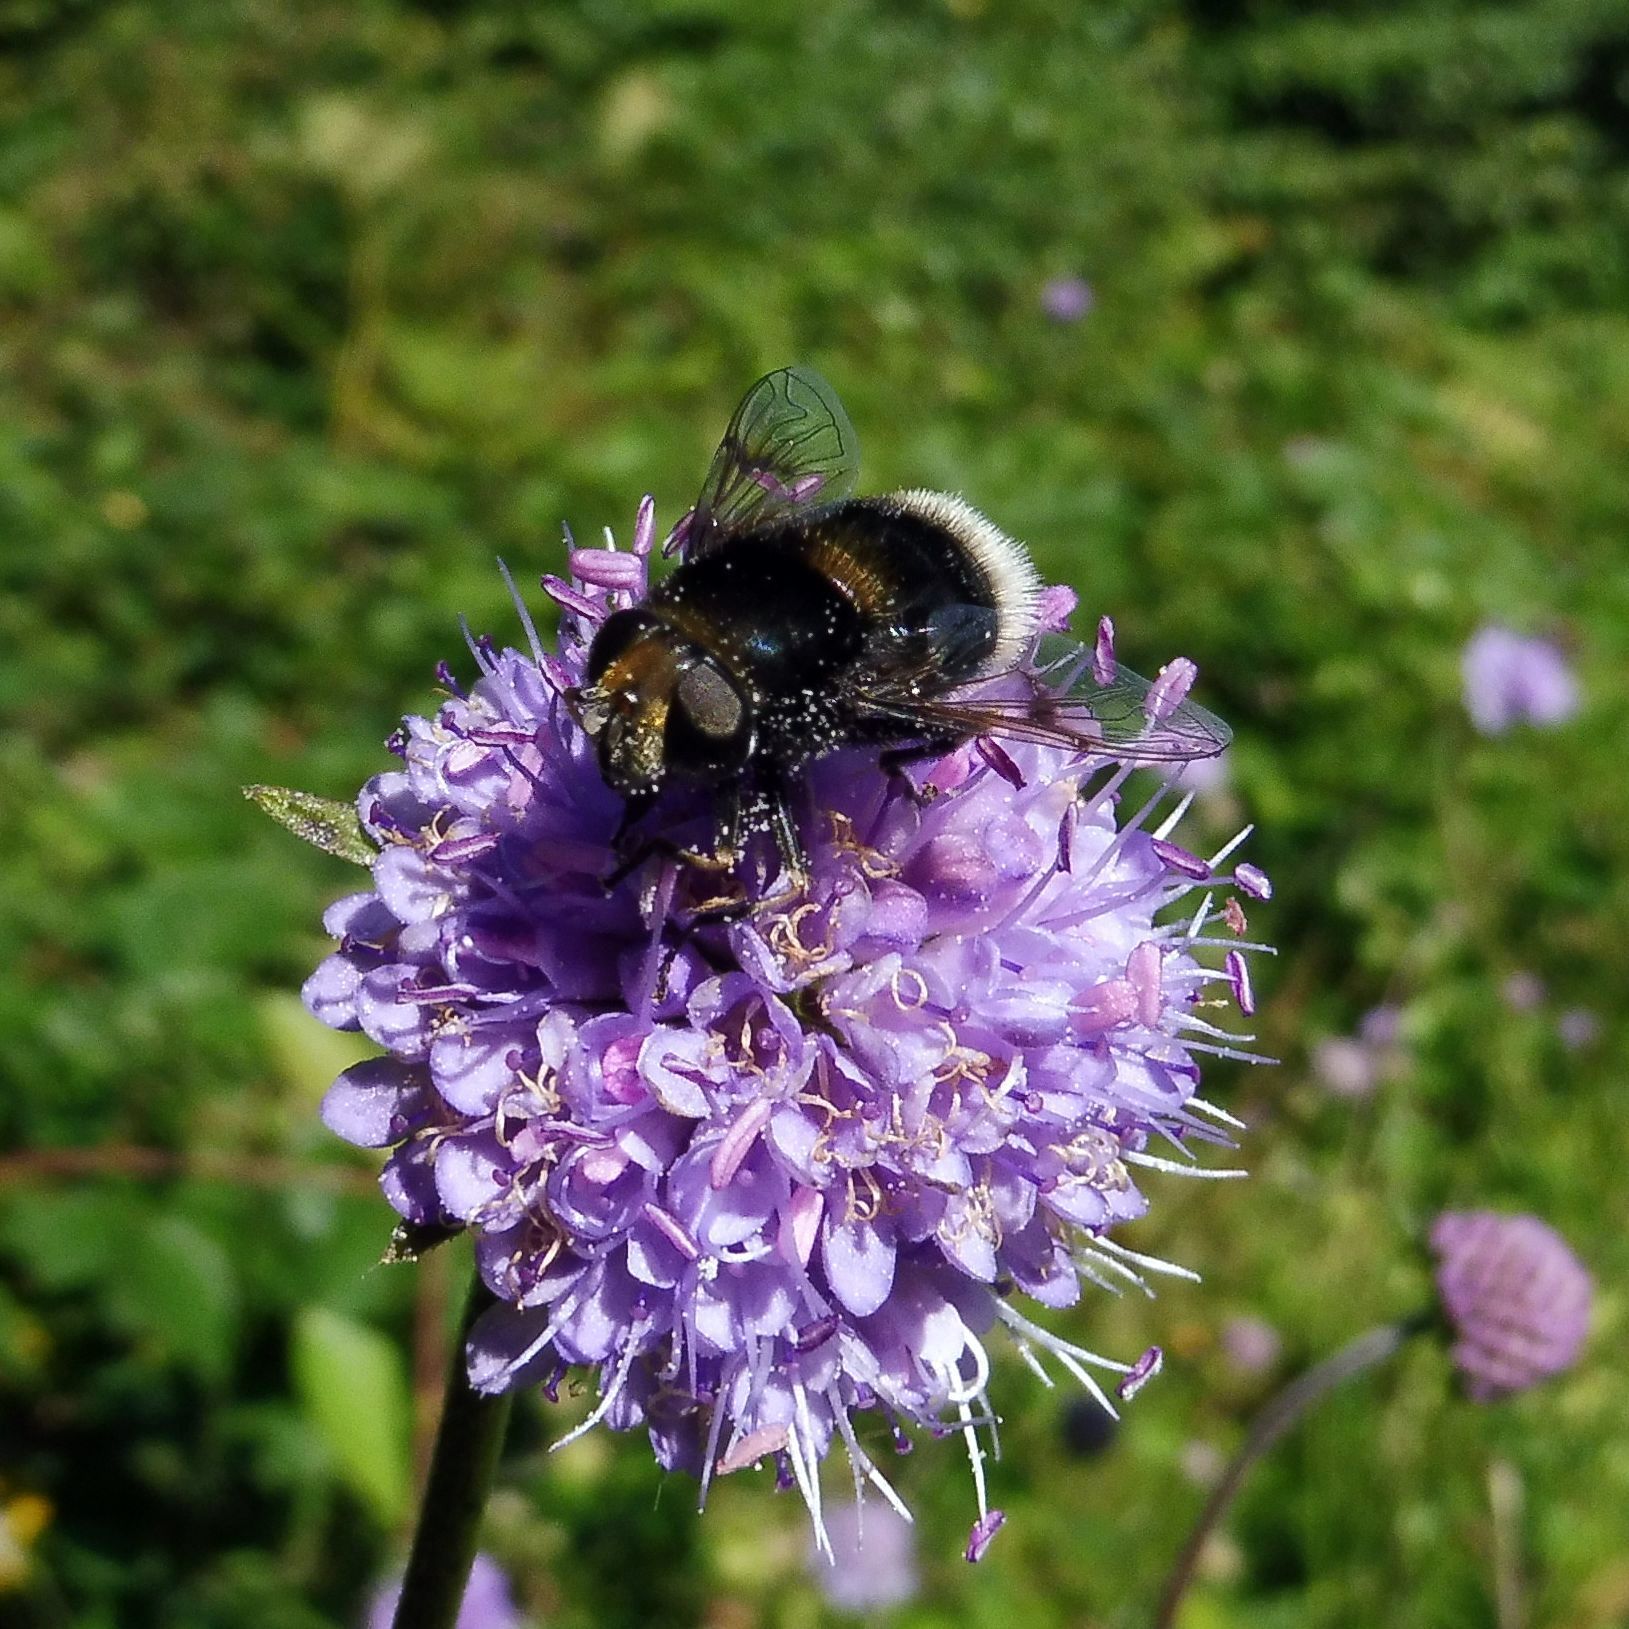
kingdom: Animalia
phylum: Arthropoda
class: Insecta
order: Diptera
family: Syrphidae
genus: Eristalis
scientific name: Eristalis intricaria
